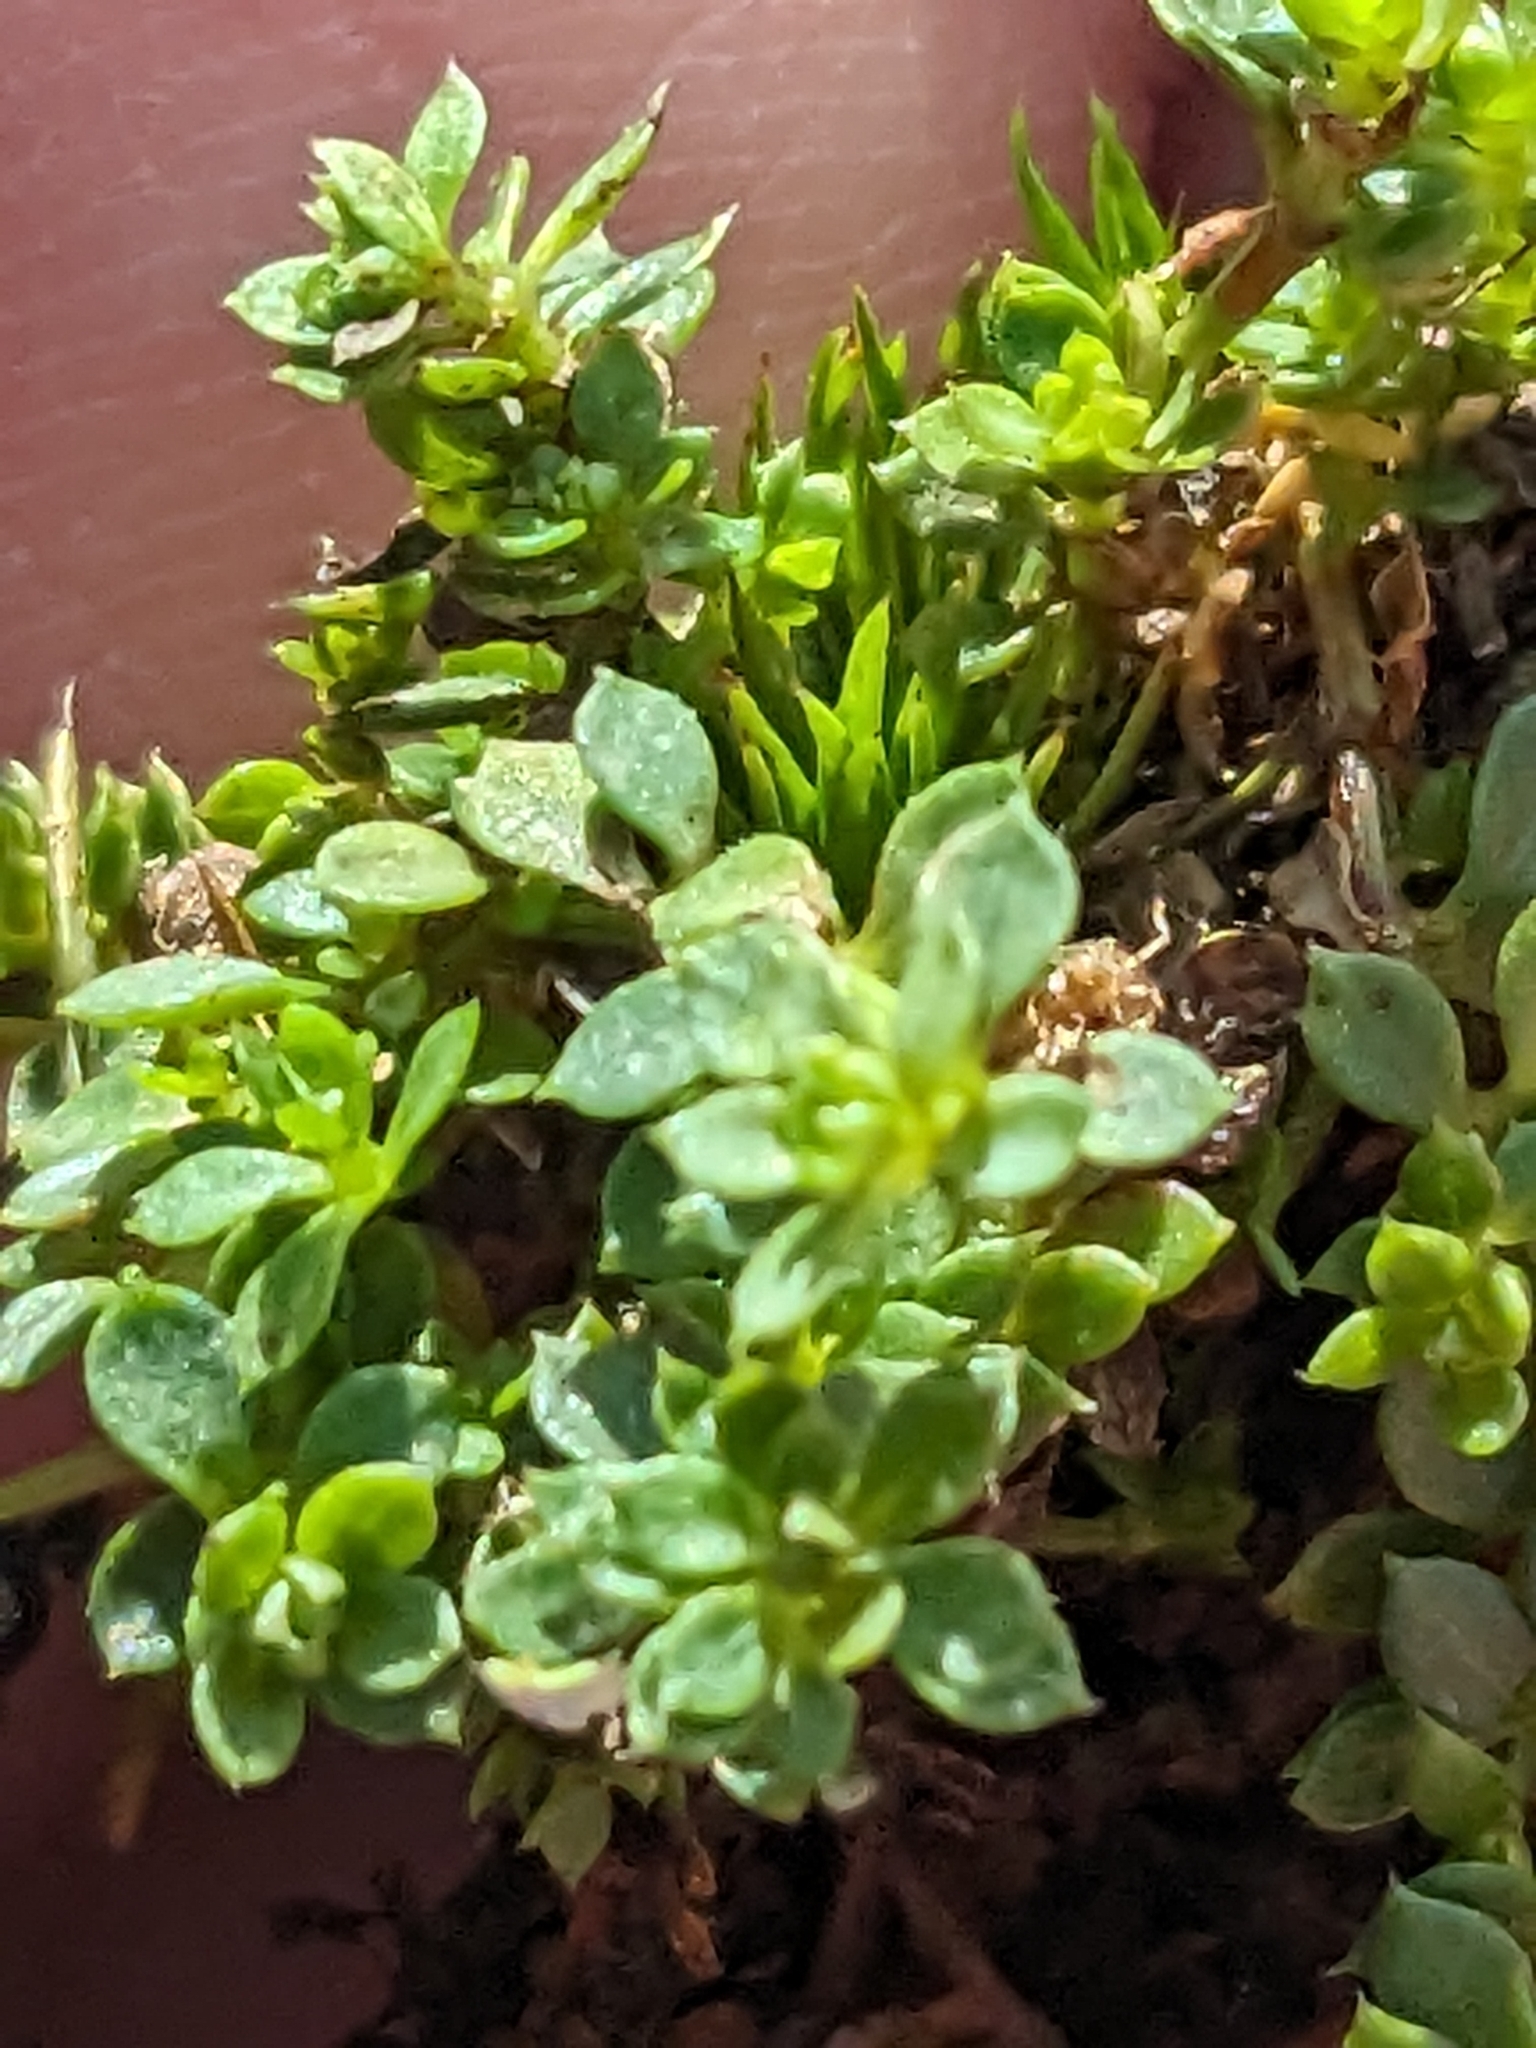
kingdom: Plantae
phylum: Tracheophyta
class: Magnoliopsida
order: Gentianales
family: Rubiaceae
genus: Galium
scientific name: Galium saxatile
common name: Heath bedstraw
